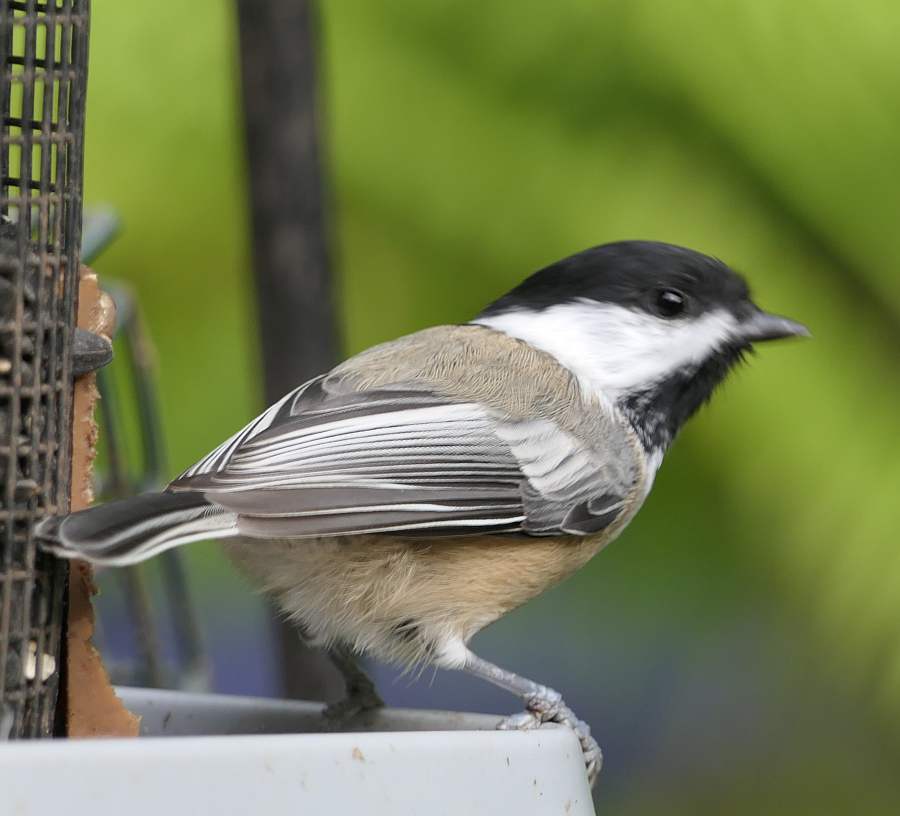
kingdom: Animalia
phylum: Chordata
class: Aves
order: Passeriformes
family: Paridae
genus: Poecile
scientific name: Poecile atricapillus
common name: Black-capped chickadee
